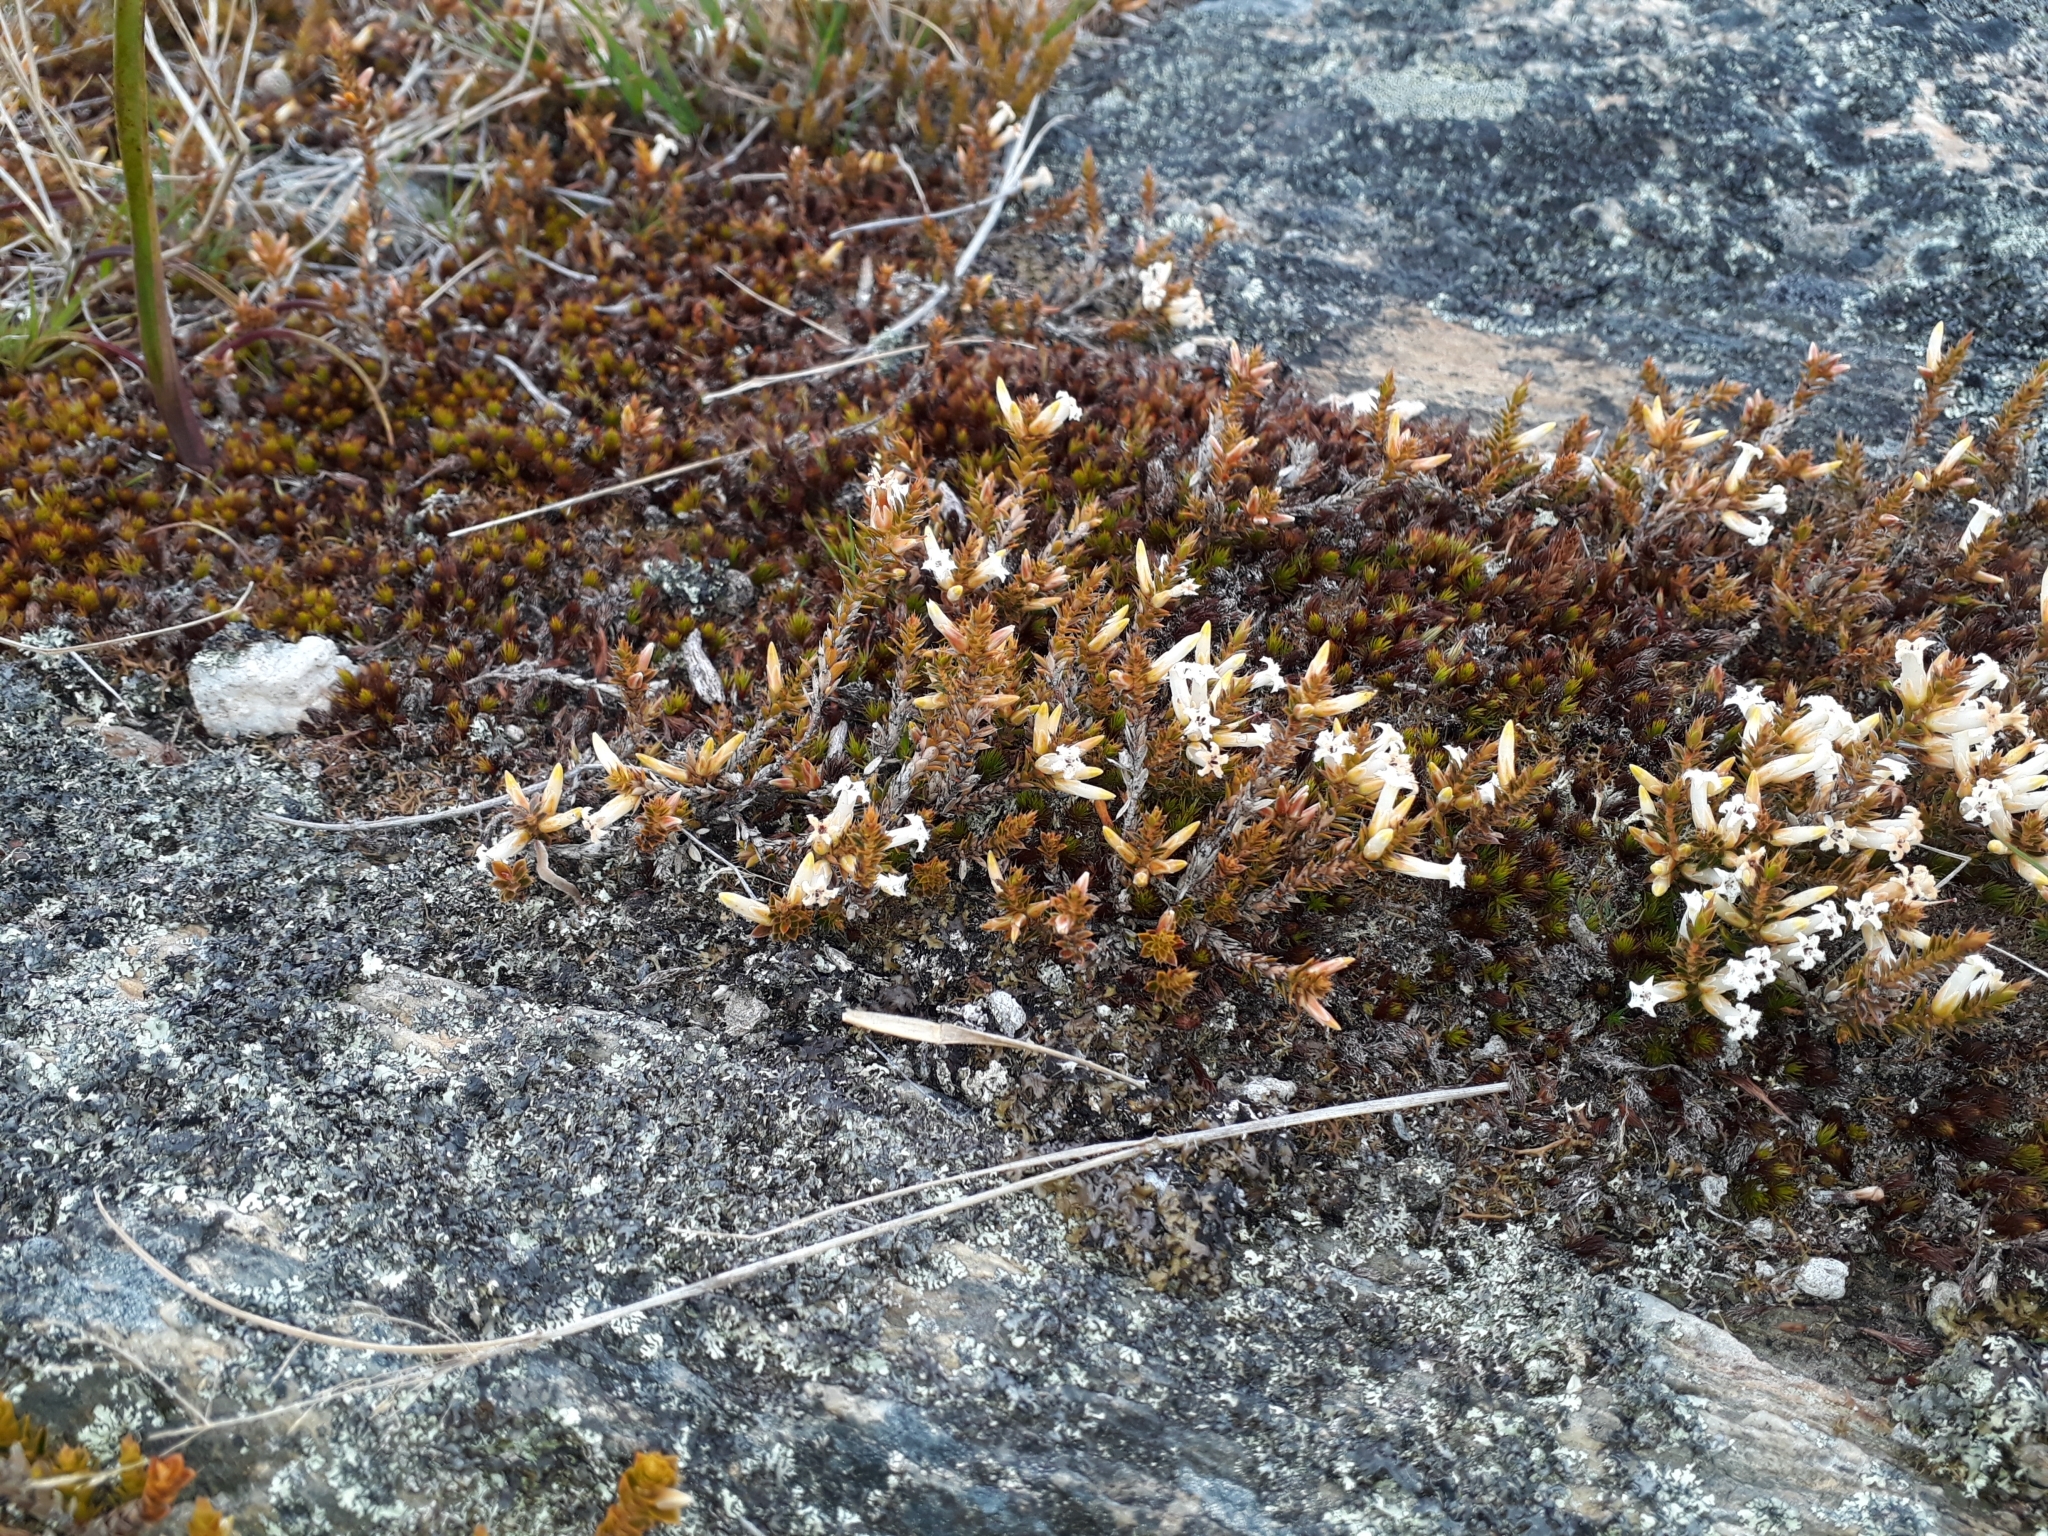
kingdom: Plantae
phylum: Tracheophyta
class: Magnoliopsida
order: Ericales
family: Ericaceae
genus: Styphelia
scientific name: Styphelia nesophila
